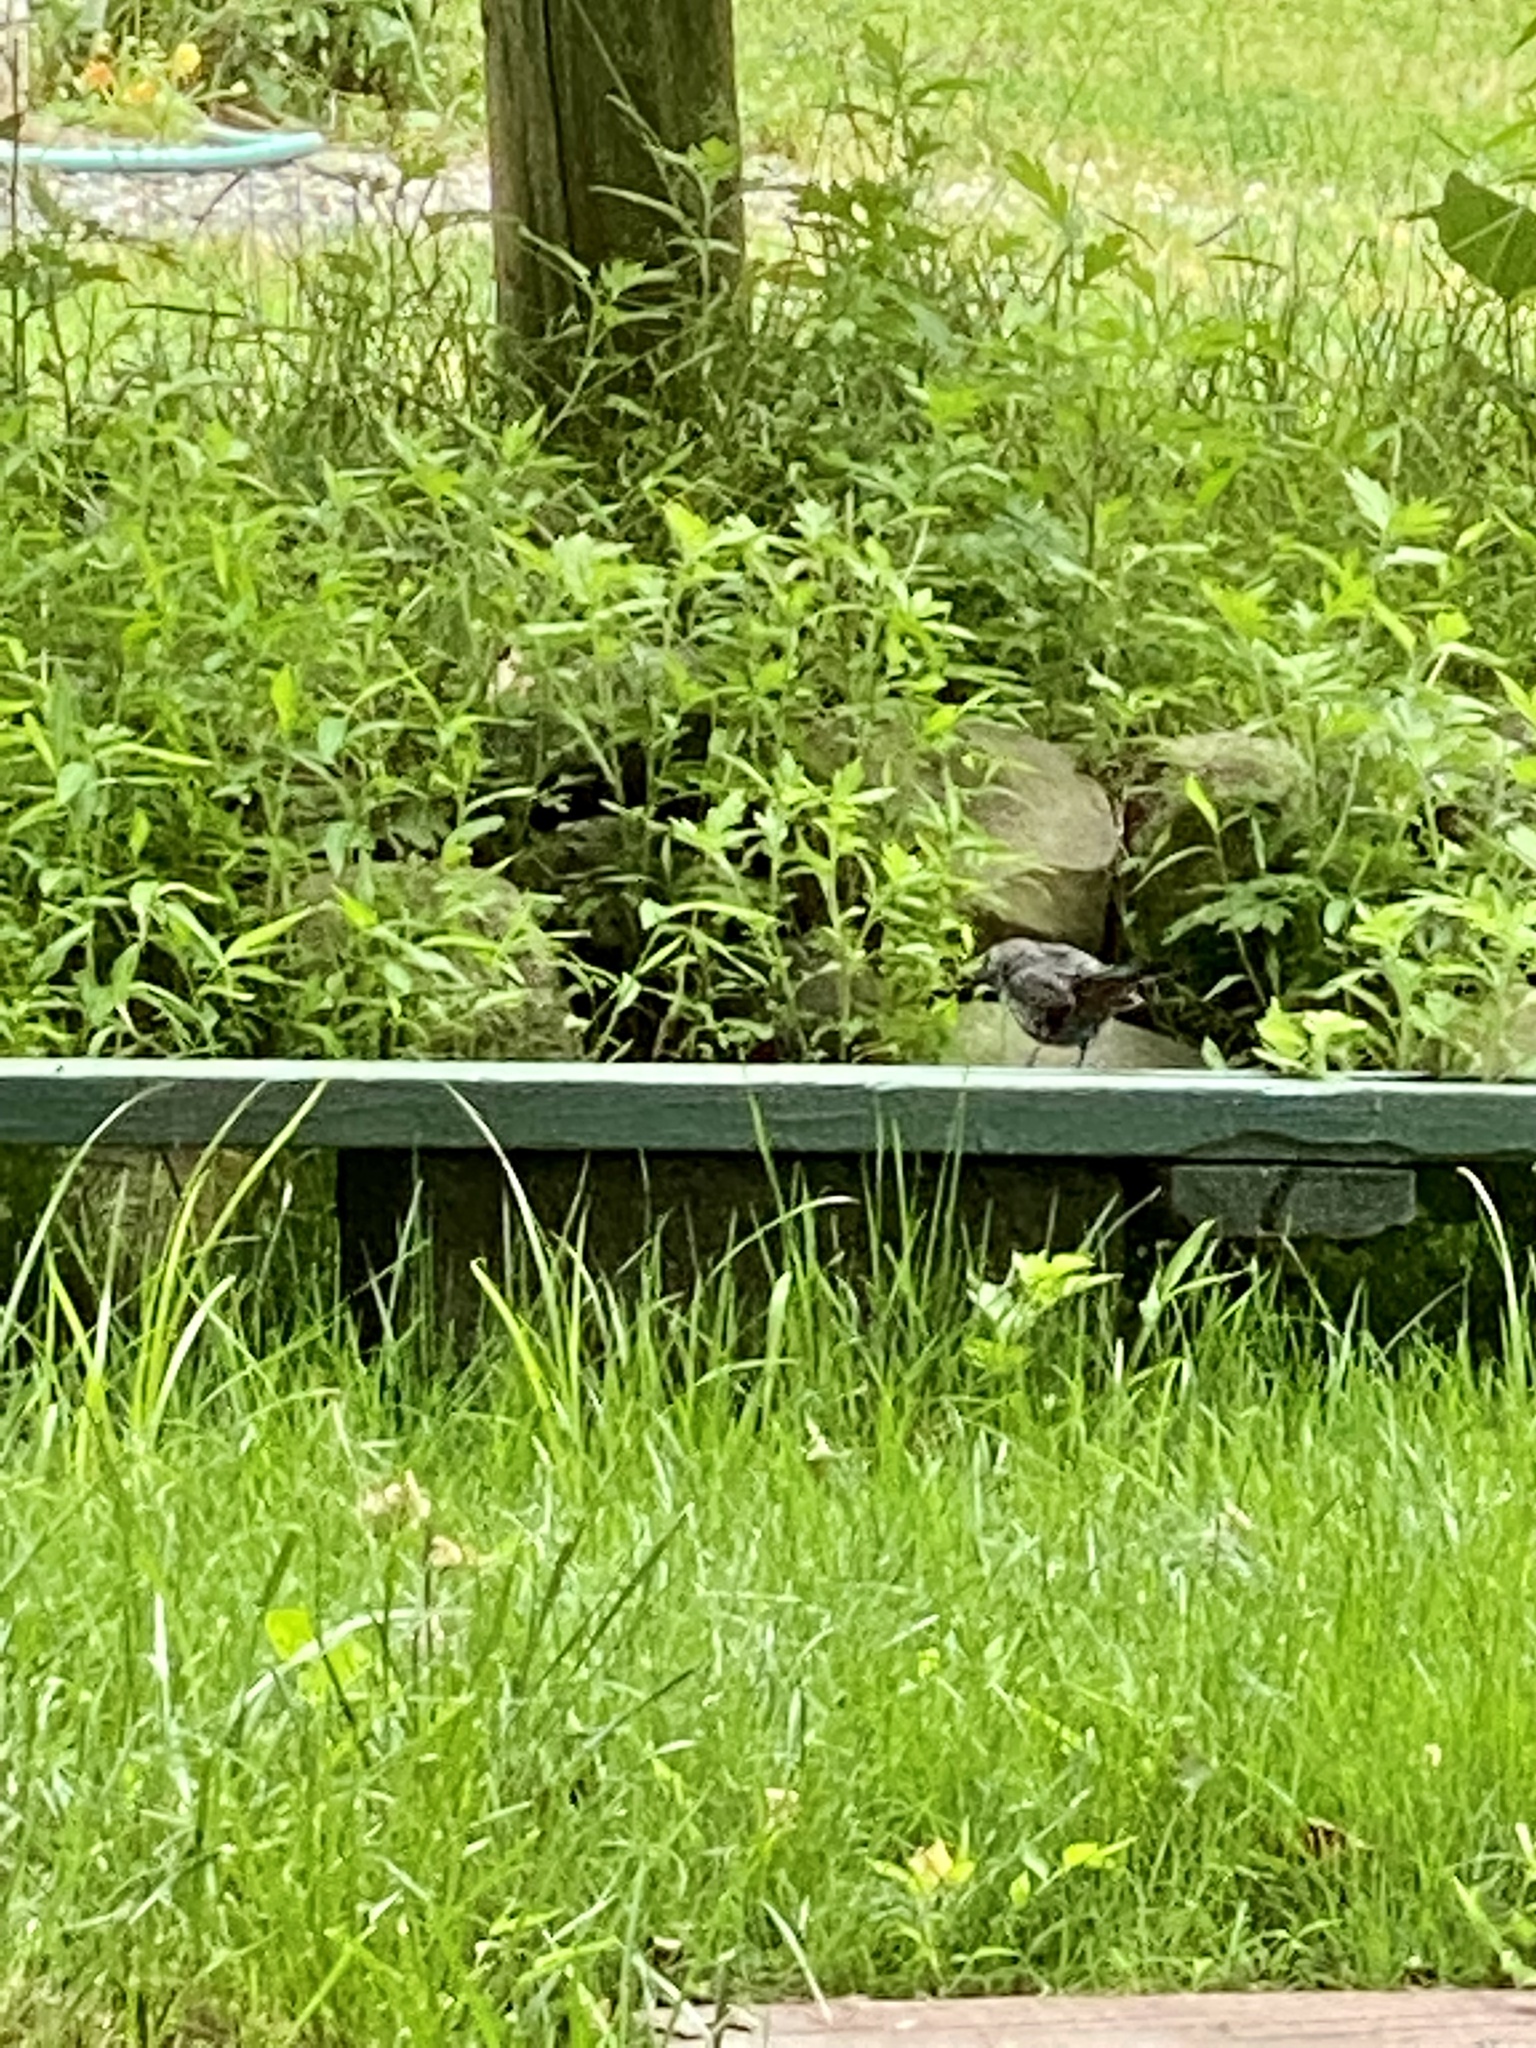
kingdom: Animalia
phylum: Chordata
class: Aves
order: Passeriformes
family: Mimidae
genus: Dumetella
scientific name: Dumetella carolinensis
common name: Gray catbird
